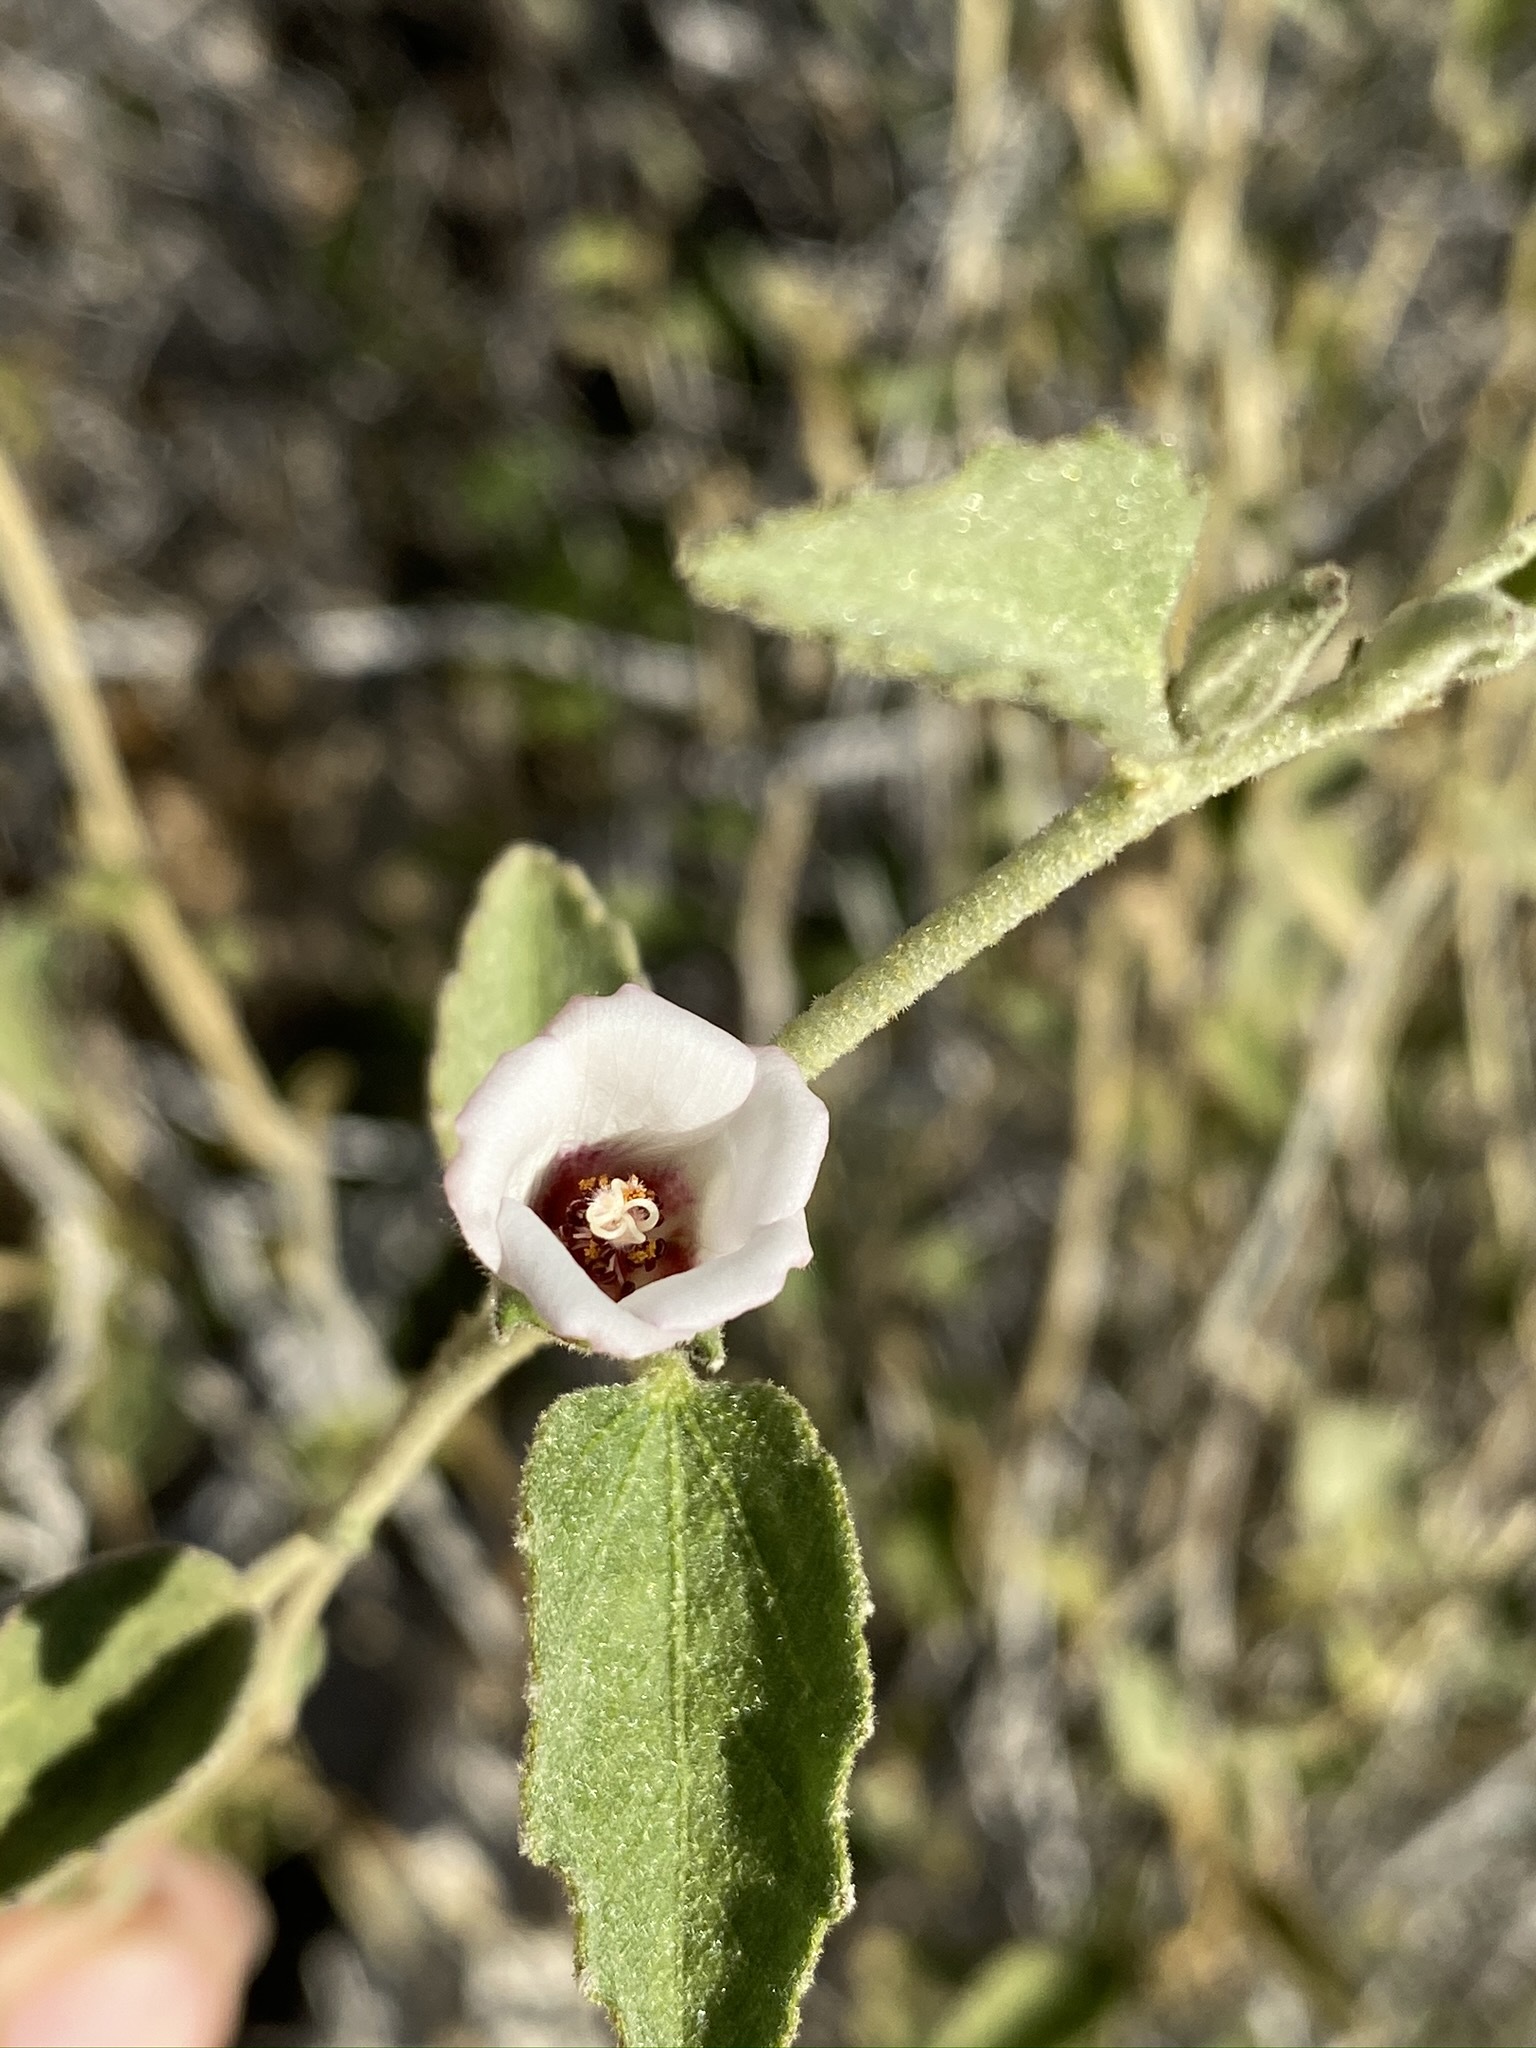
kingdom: Plantae
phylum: Tracheophyta
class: Magnoliopsida
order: Malvales
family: Malvaceae
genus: Hibiscus
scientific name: Hibiscus denudatus
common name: Paleface
